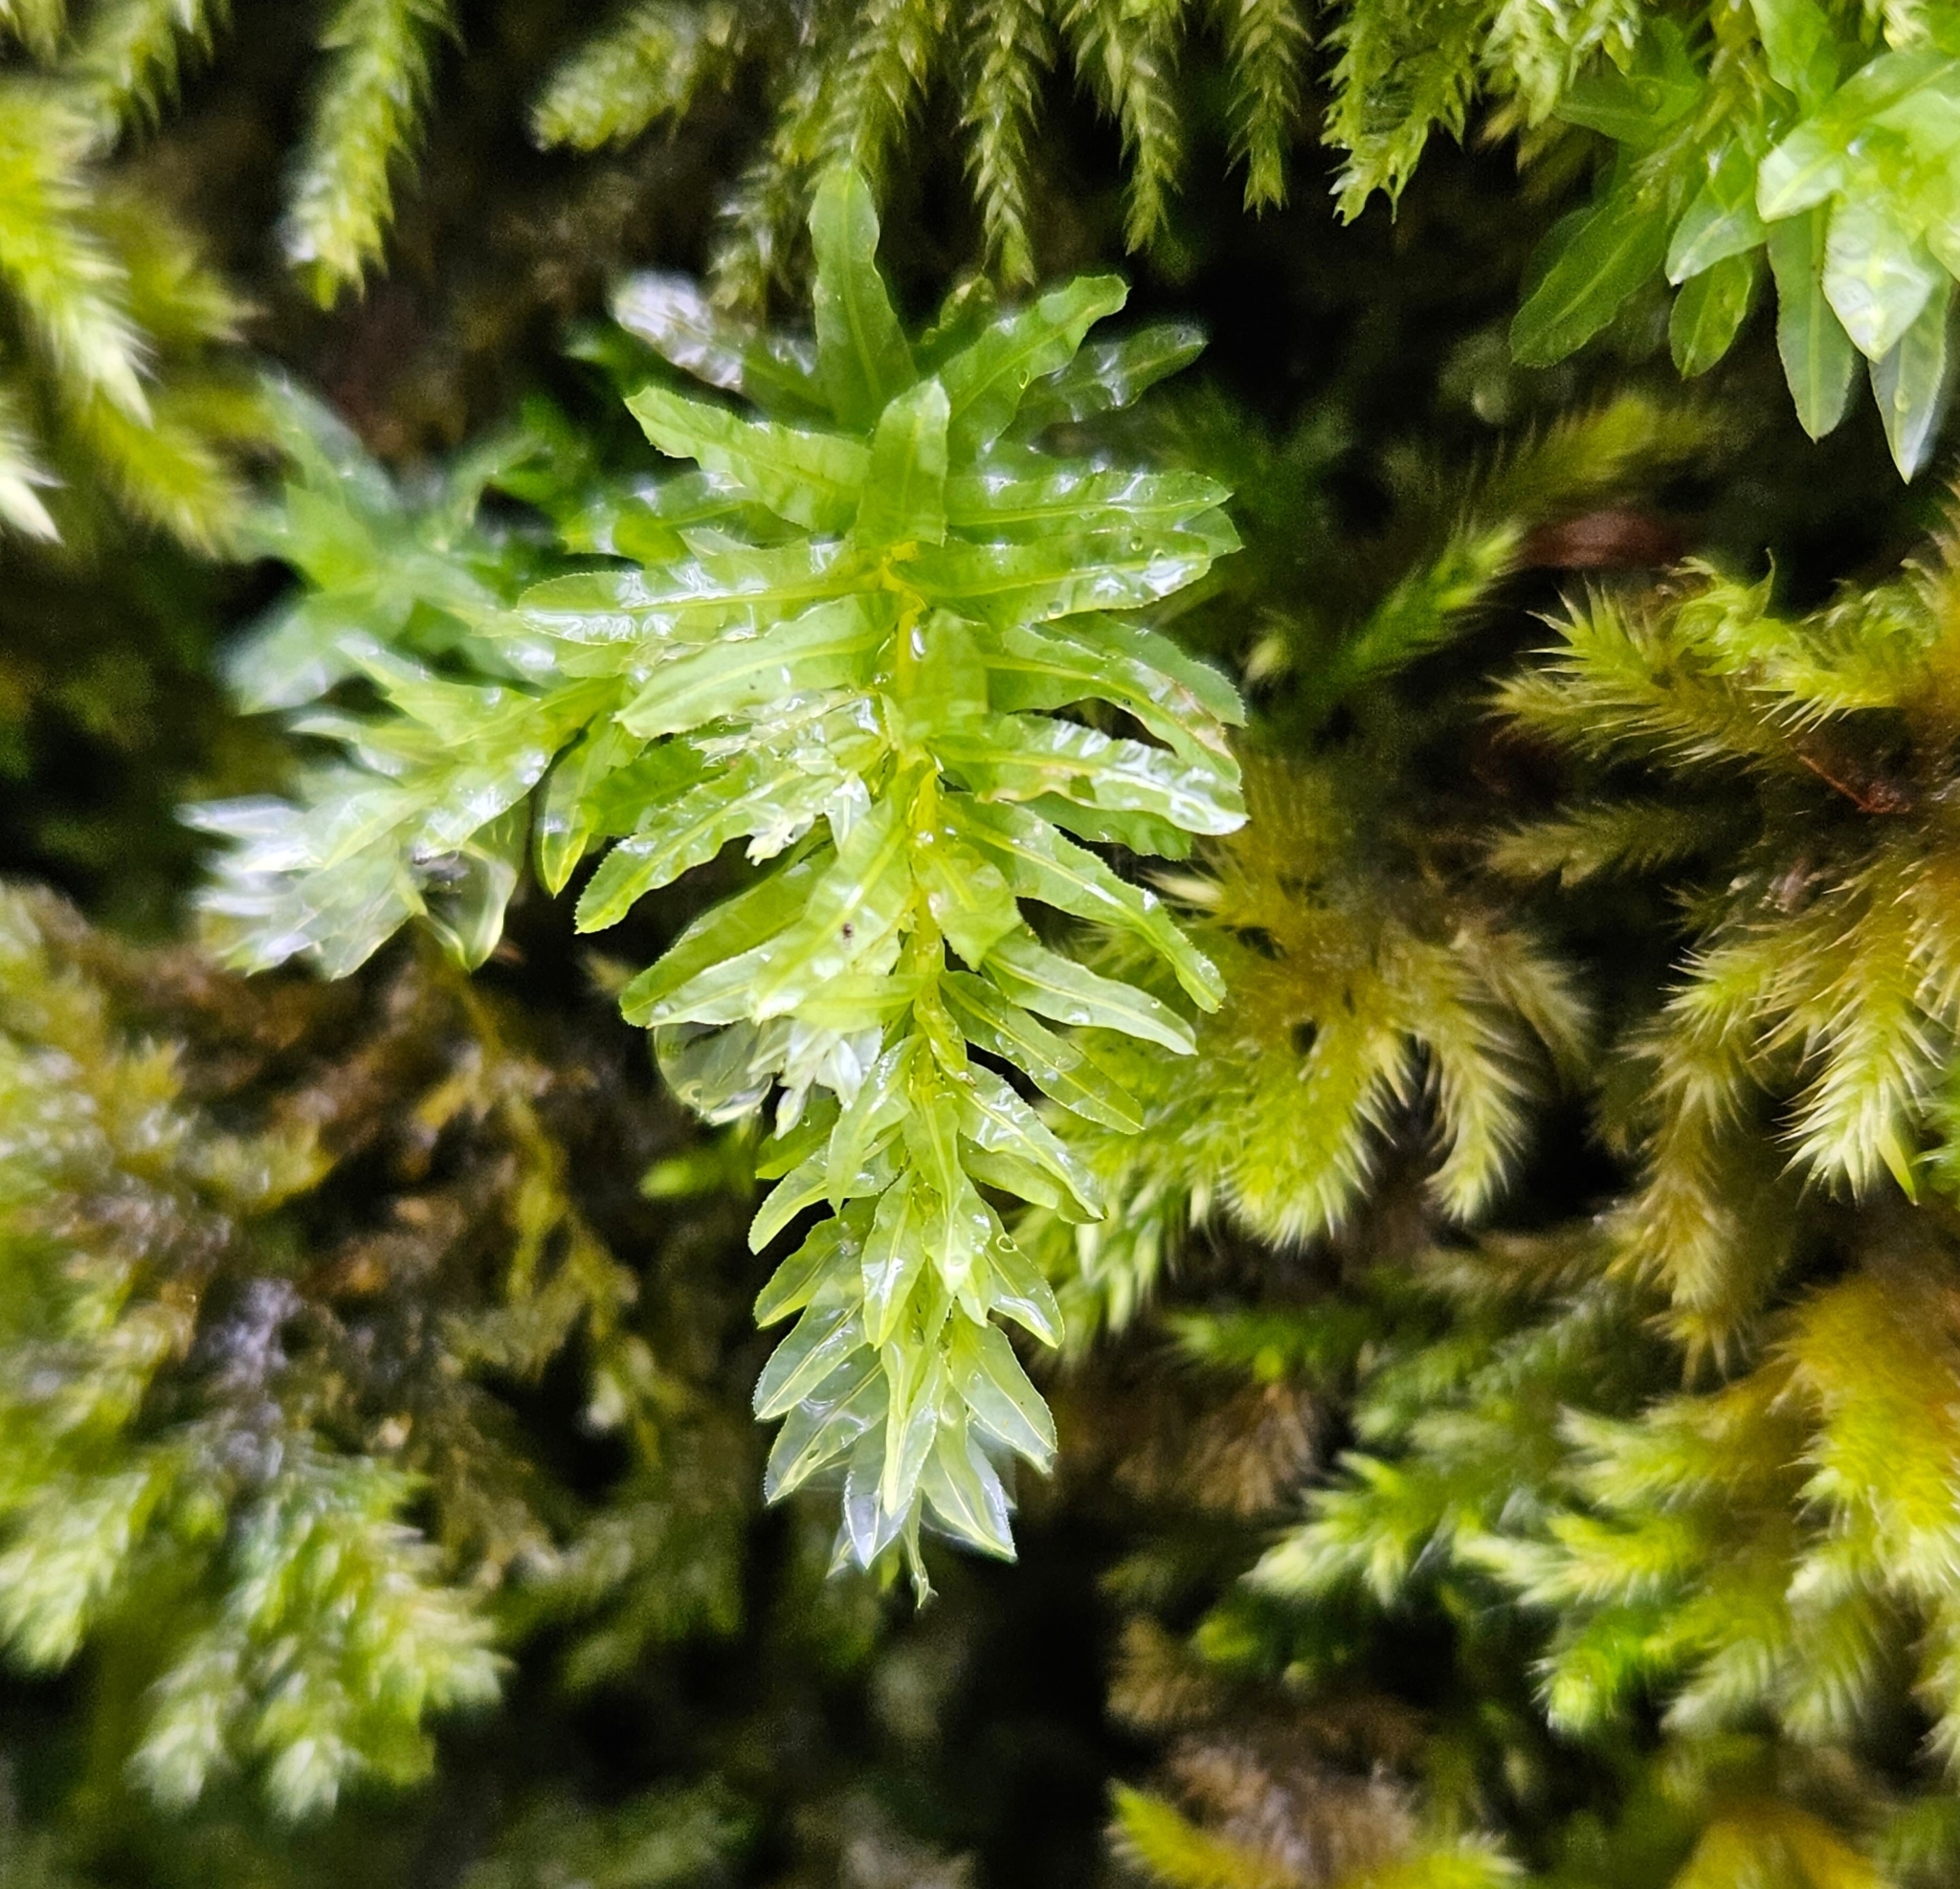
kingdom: Plantae
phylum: Bryophyta
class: Bryopsida
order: Bryales
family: Mniaceae
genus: Plagiomnium
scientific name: Plagiomnium undulatum
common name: Hart's-tongue thyme-moss
